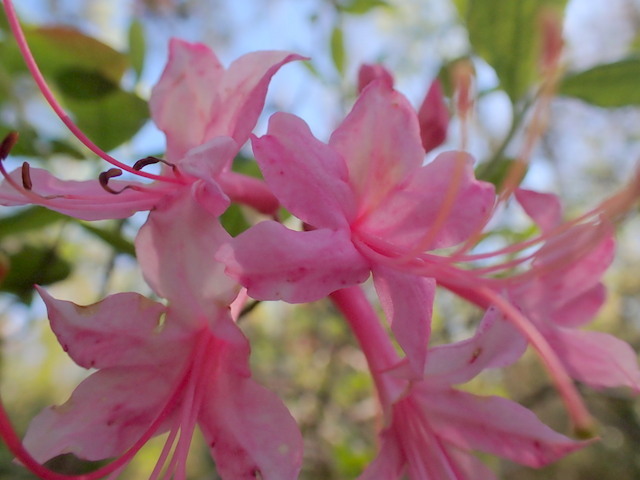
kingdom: Plantae
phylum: Tracheophyta
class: Magnoliopsida
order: Ericales
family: Ericaceae
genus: Rhododendron
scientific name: Rhododendron canescens
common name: Mountain azalea
